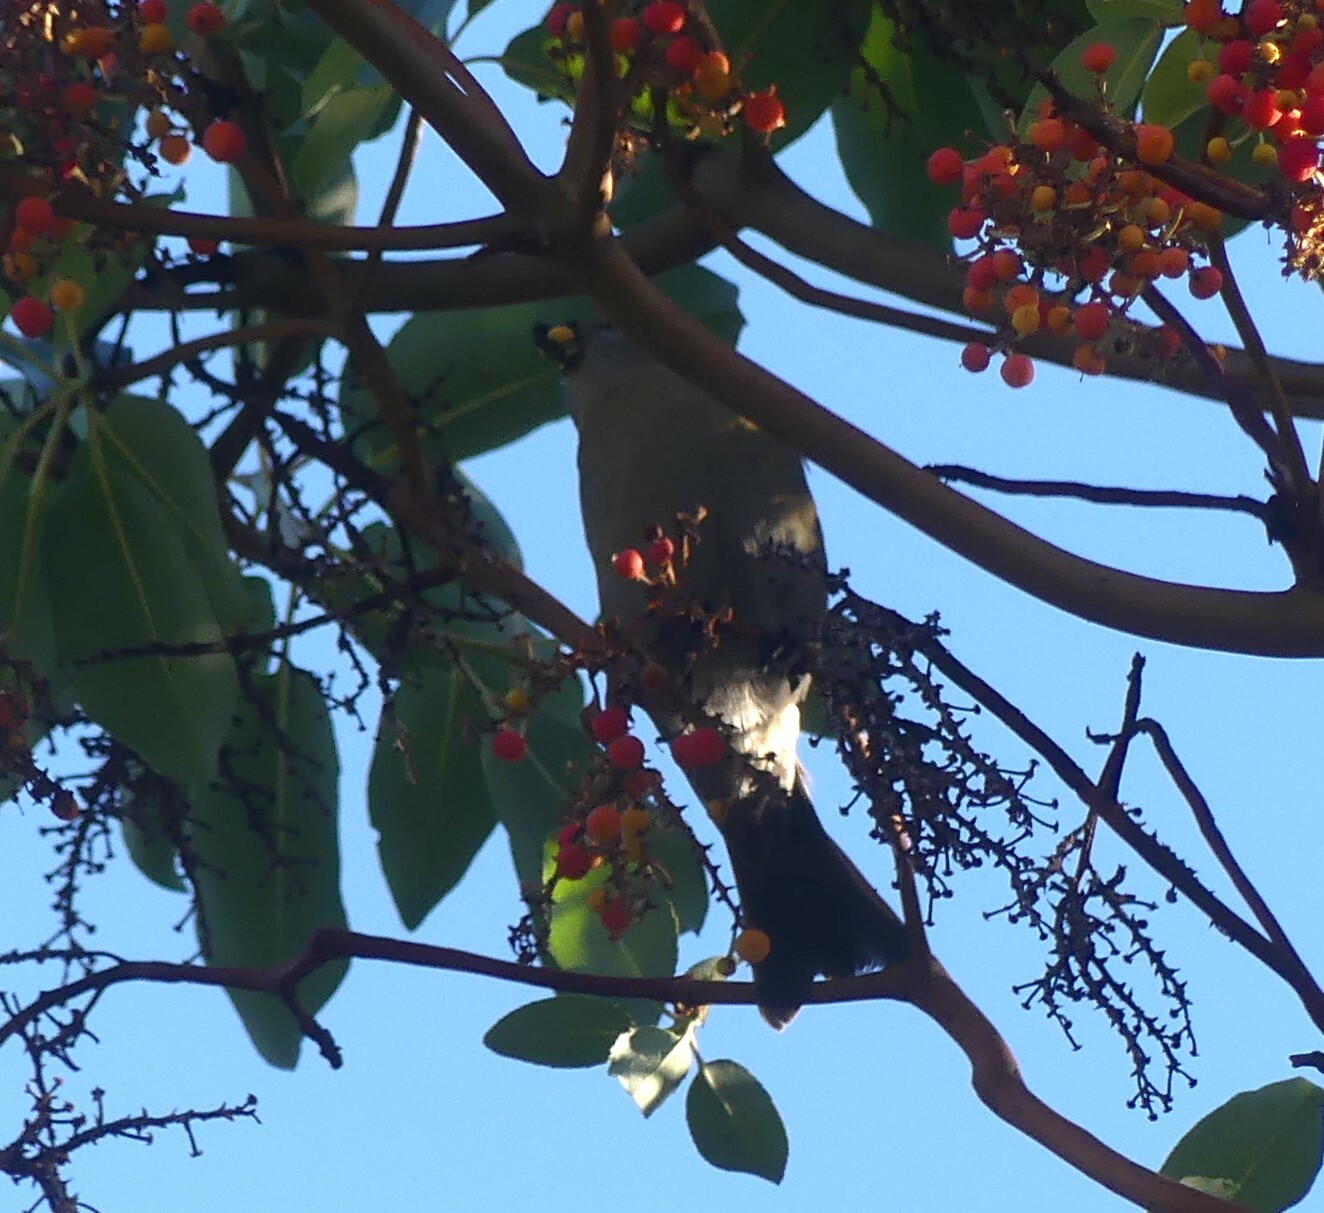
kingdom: Animalia
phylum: Chordata
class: Aves
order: Passeriformes
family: Fringillidae
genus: Pinicola
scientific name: Pinicola enucleator
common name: Pine grosbeak
